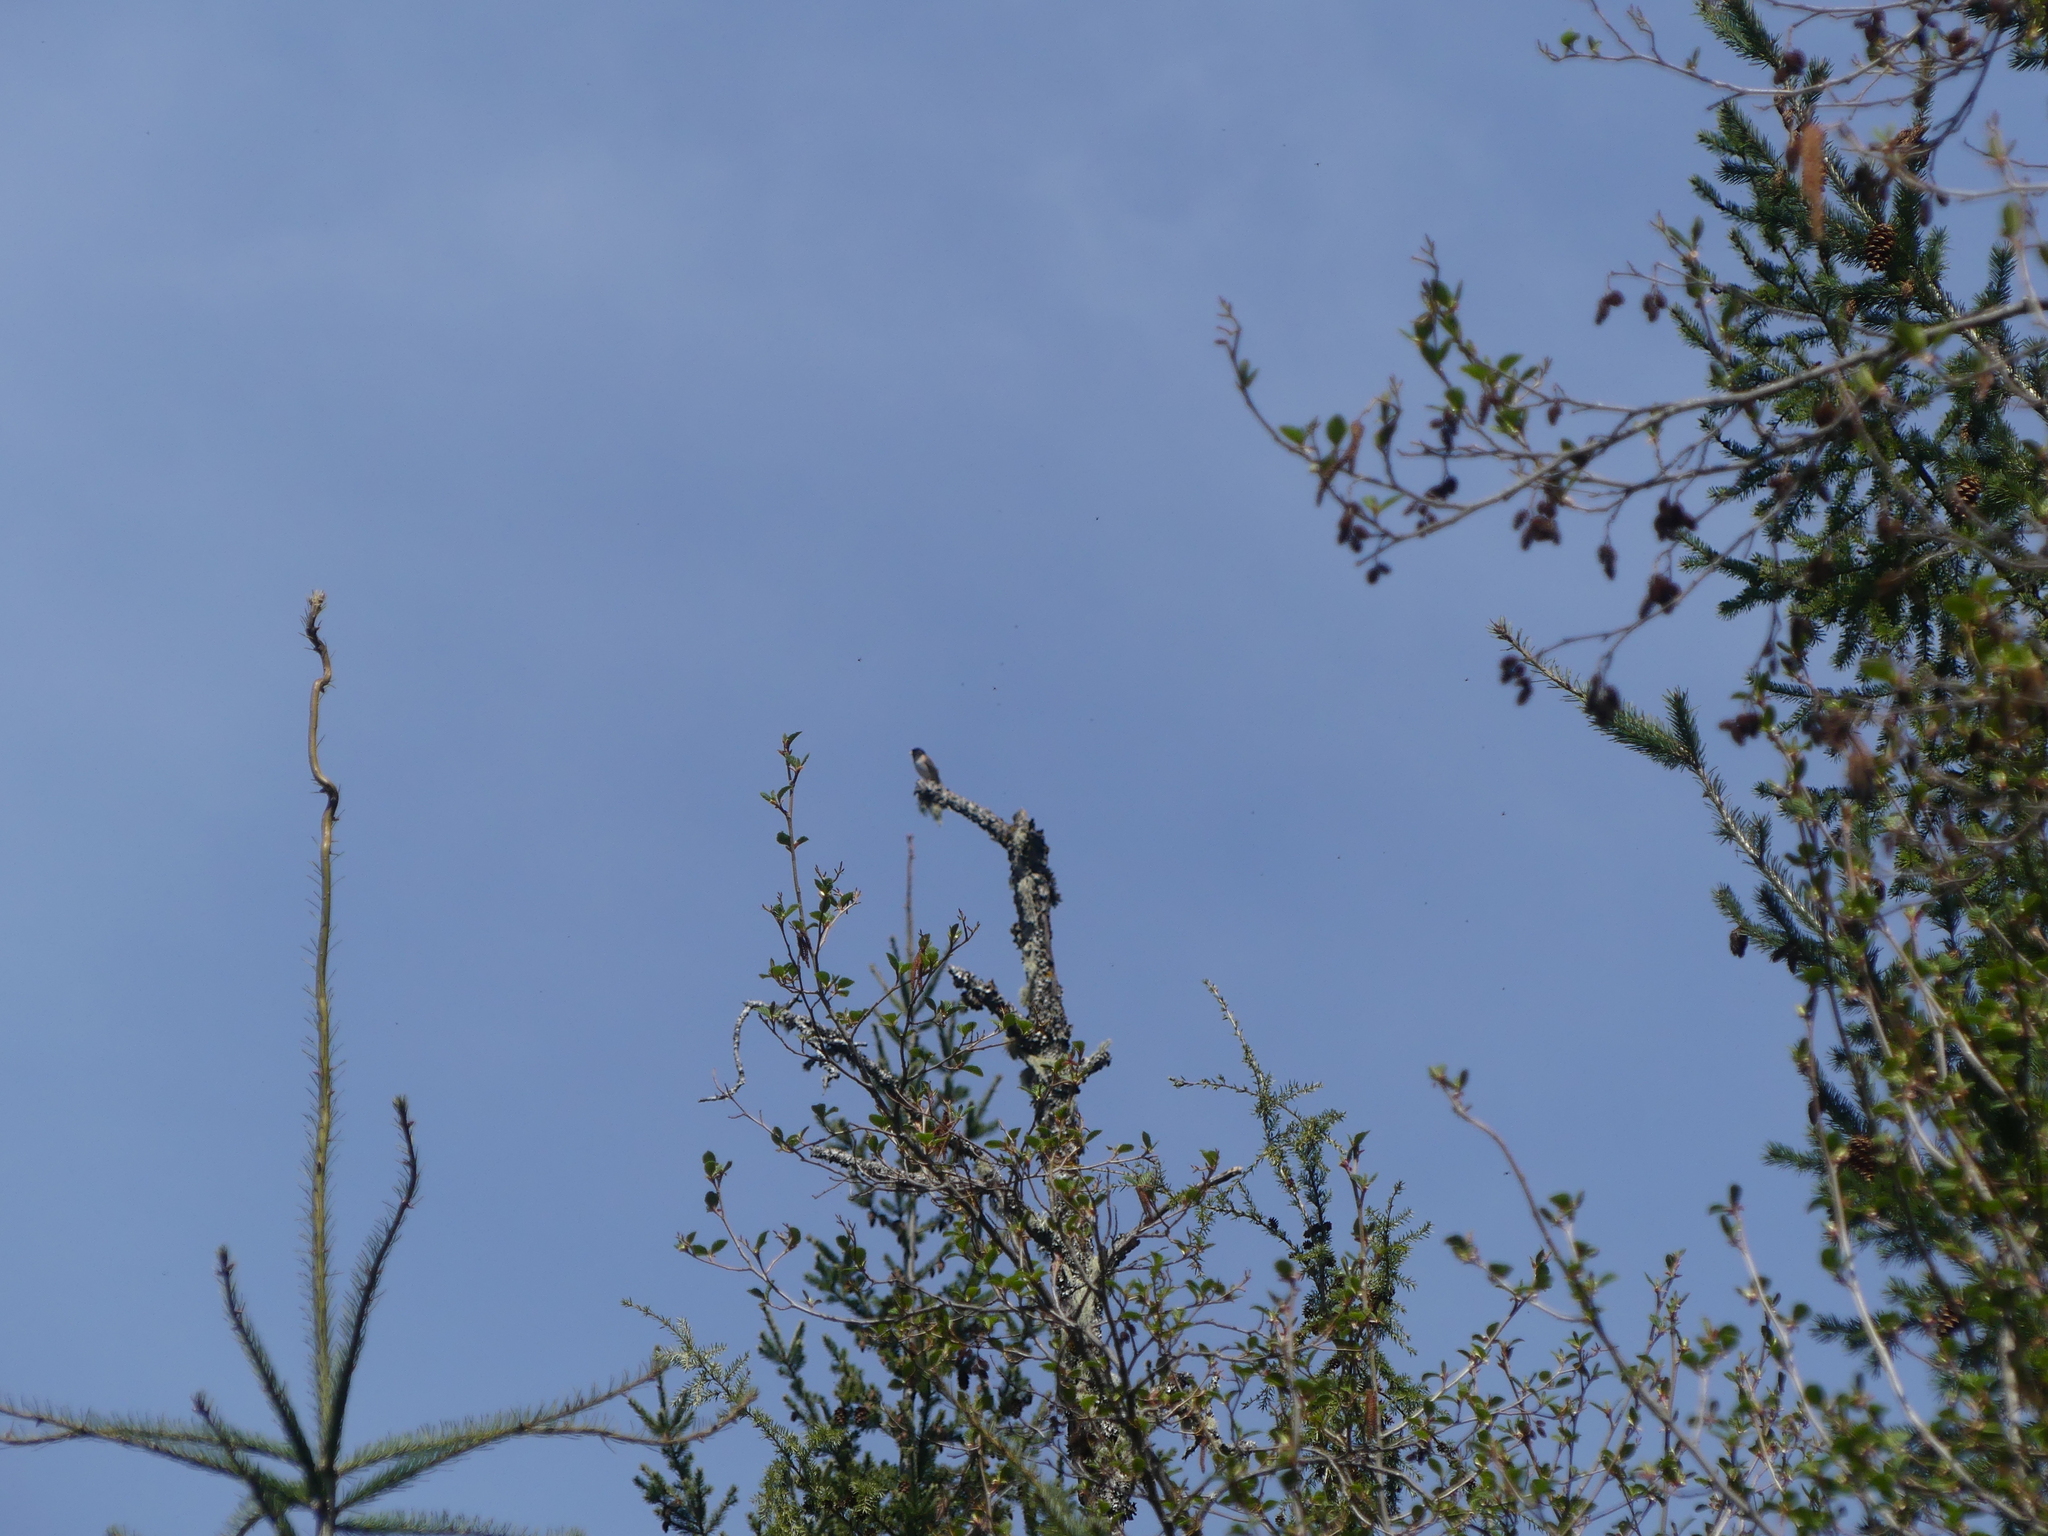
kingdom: Animalia
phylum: Chordata
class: Aves
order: Passeriformes
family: Passerellidae
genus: Junco
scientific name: Junco hyemalis
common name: Dark-eyed junco
